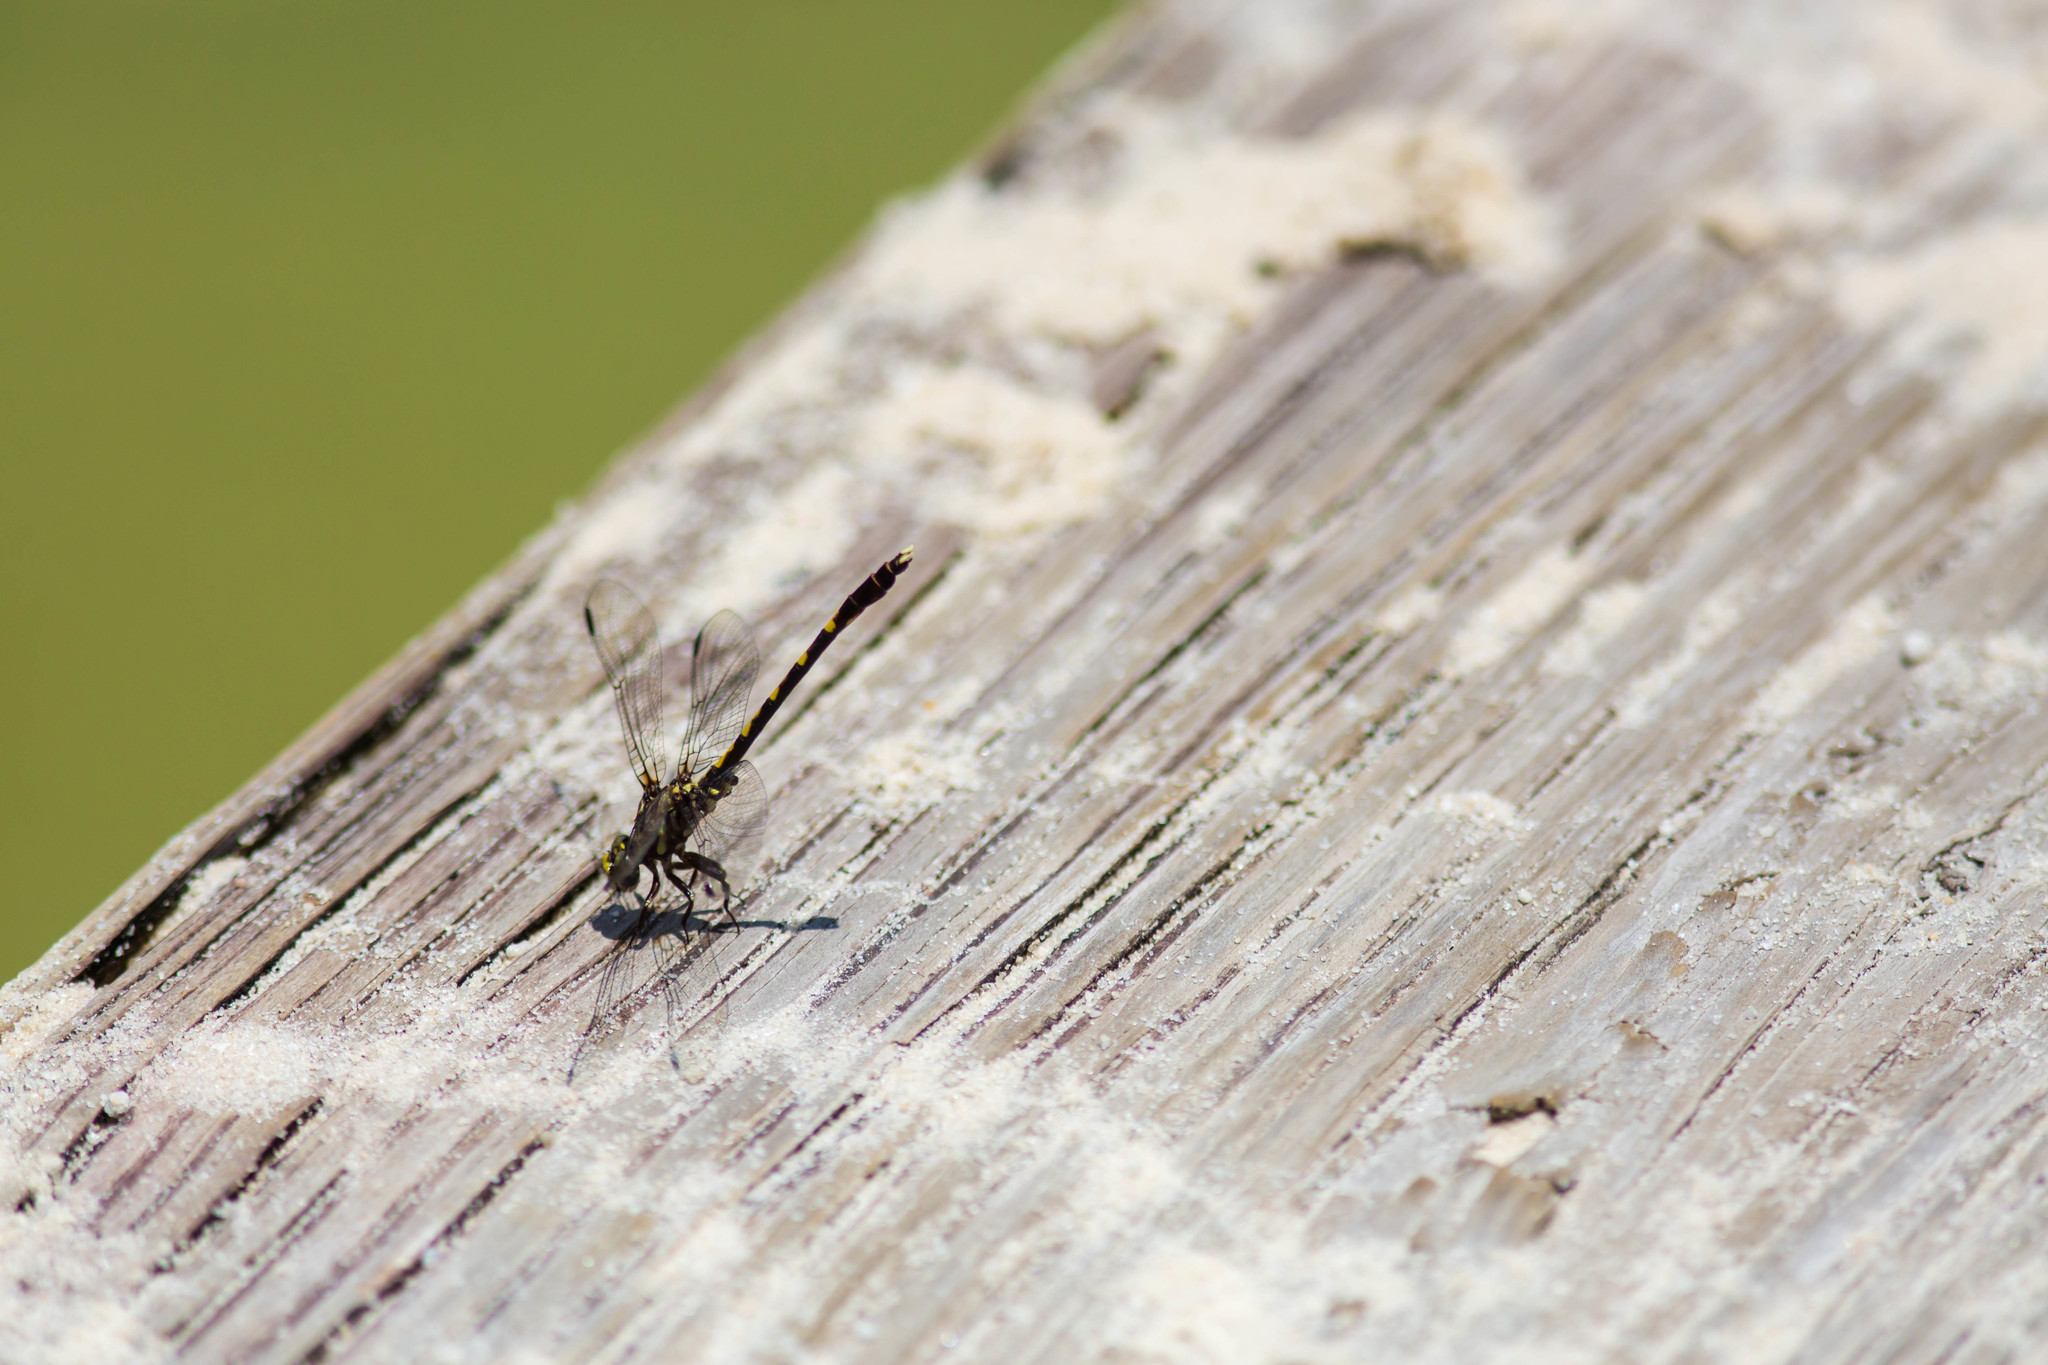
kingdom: Animalia
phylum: Arthropoda
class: Insecta
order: Odonata
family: Gomphidae
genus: Progomphus
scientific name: Progomphus obscurus
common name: Common sanddragon
